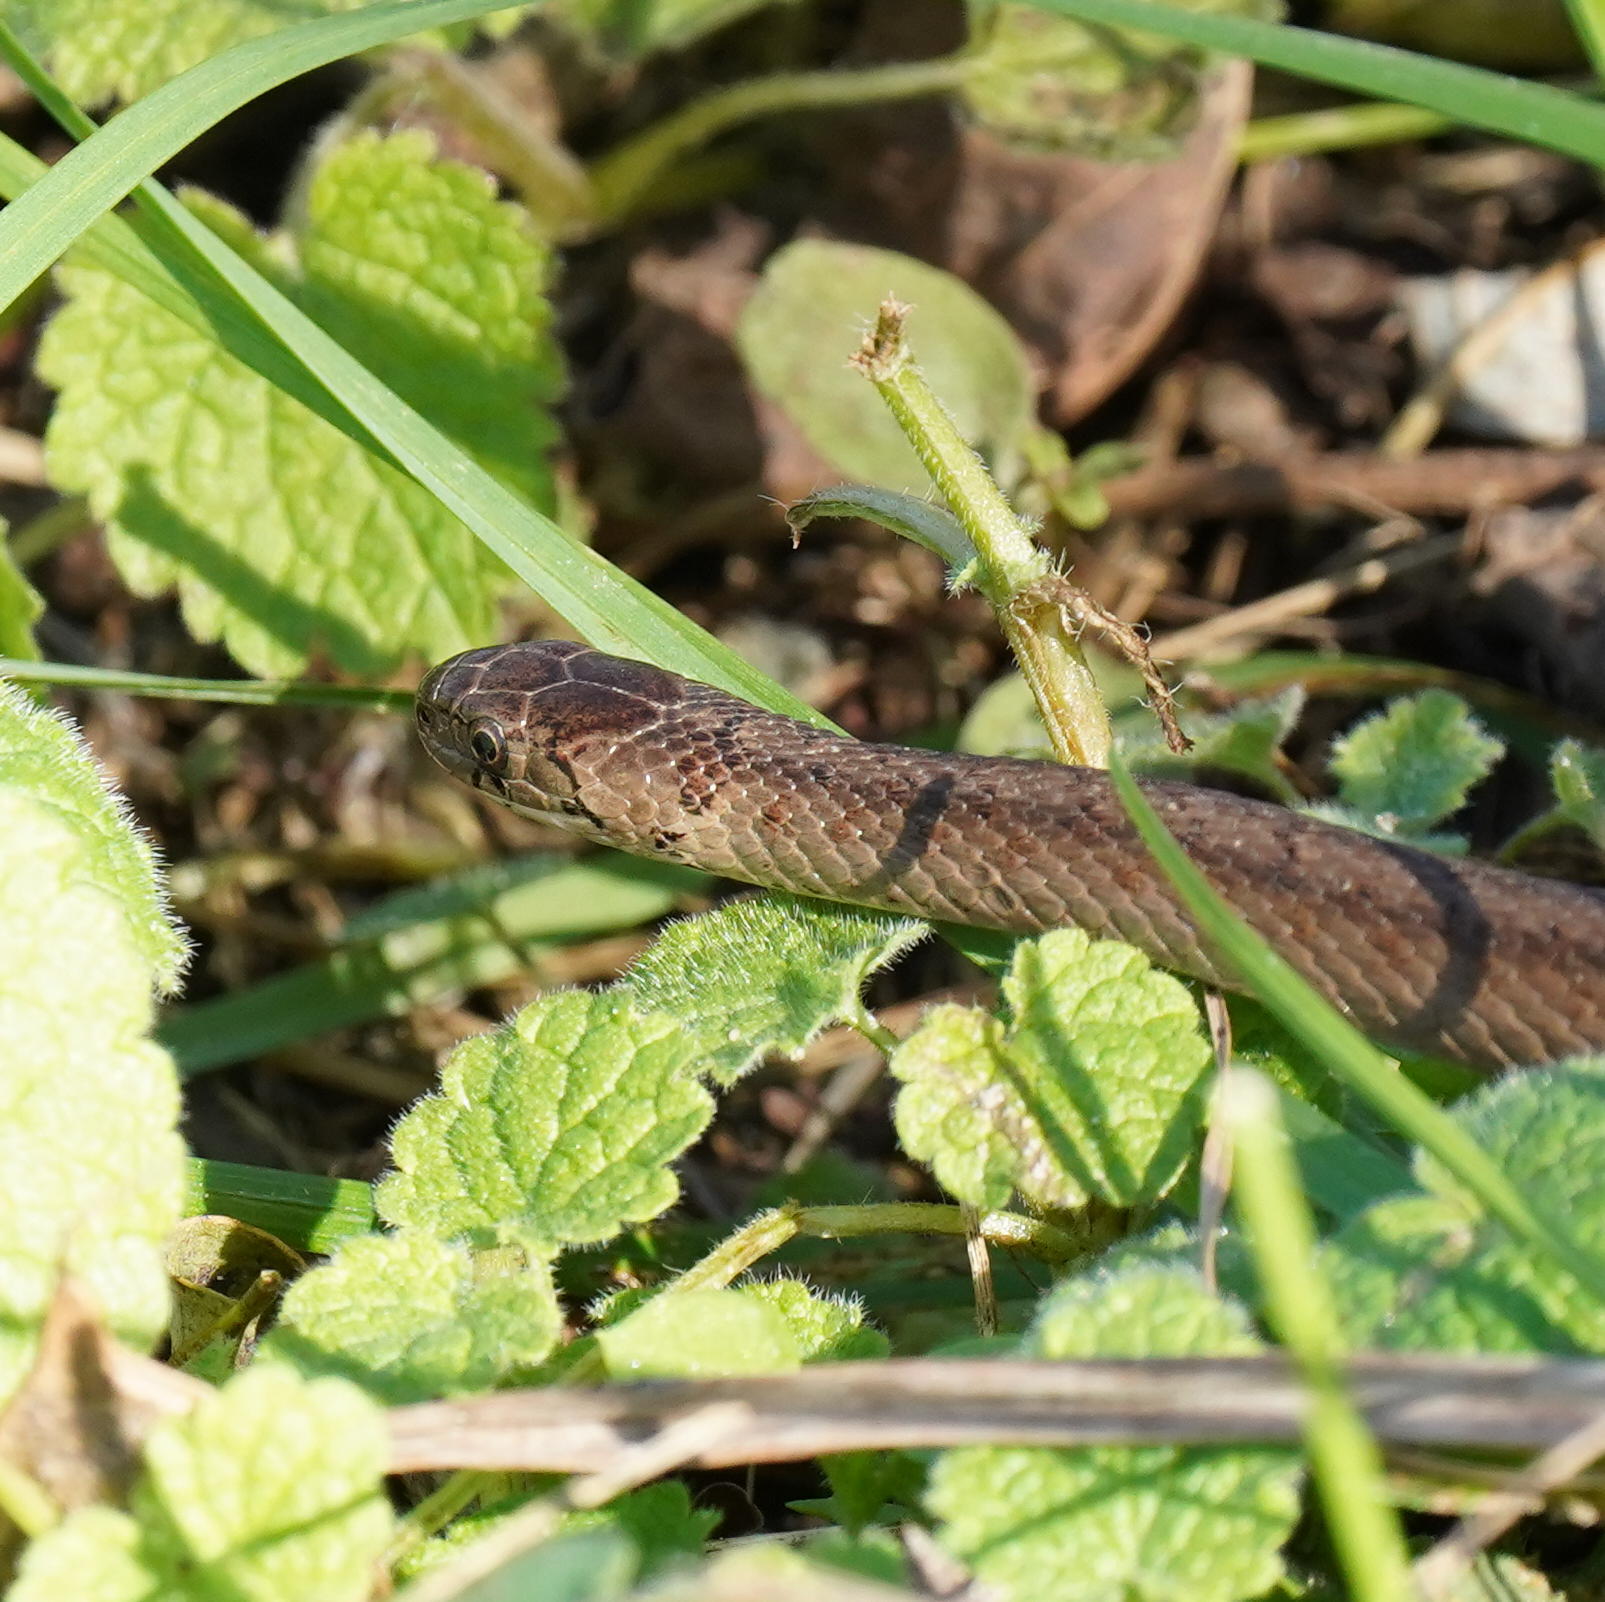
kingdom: Animalia
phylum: Chordata
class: Squamata
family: Colubridae
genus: Storeria
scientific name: Storeria dekayi
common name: (dekay’s) brown snake
